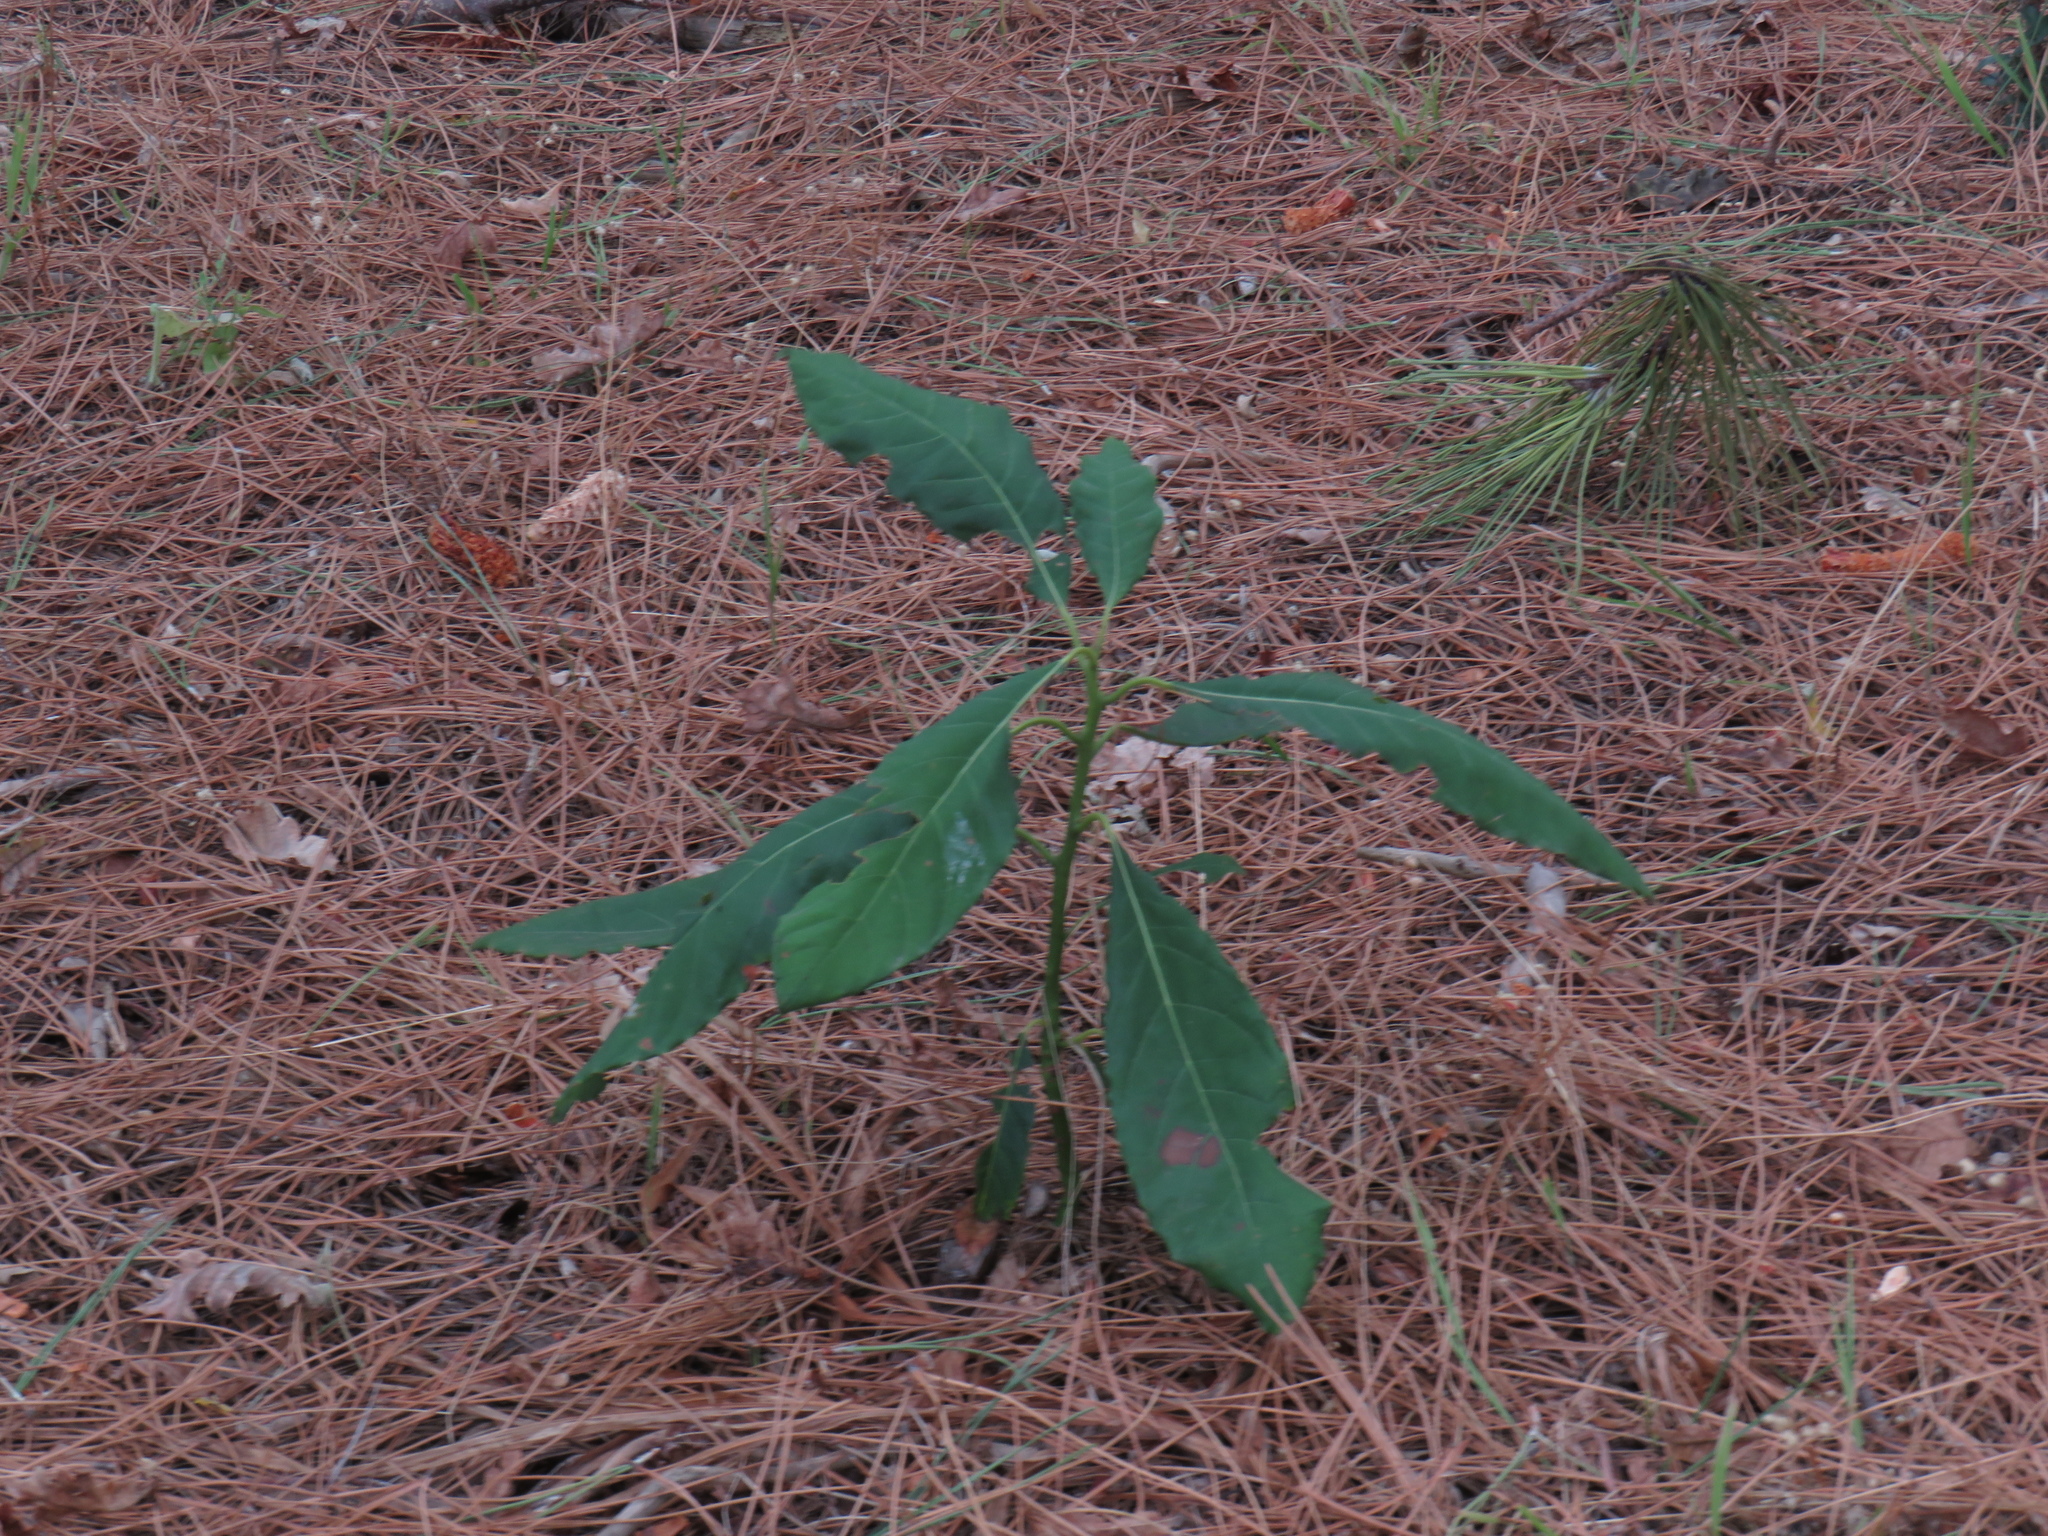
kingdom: Plantae
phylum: Tracheophyta
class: Magnoliopsida
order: Laurales
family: Lauraceae
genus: Persea
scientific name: Persea americana
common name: Avocado
